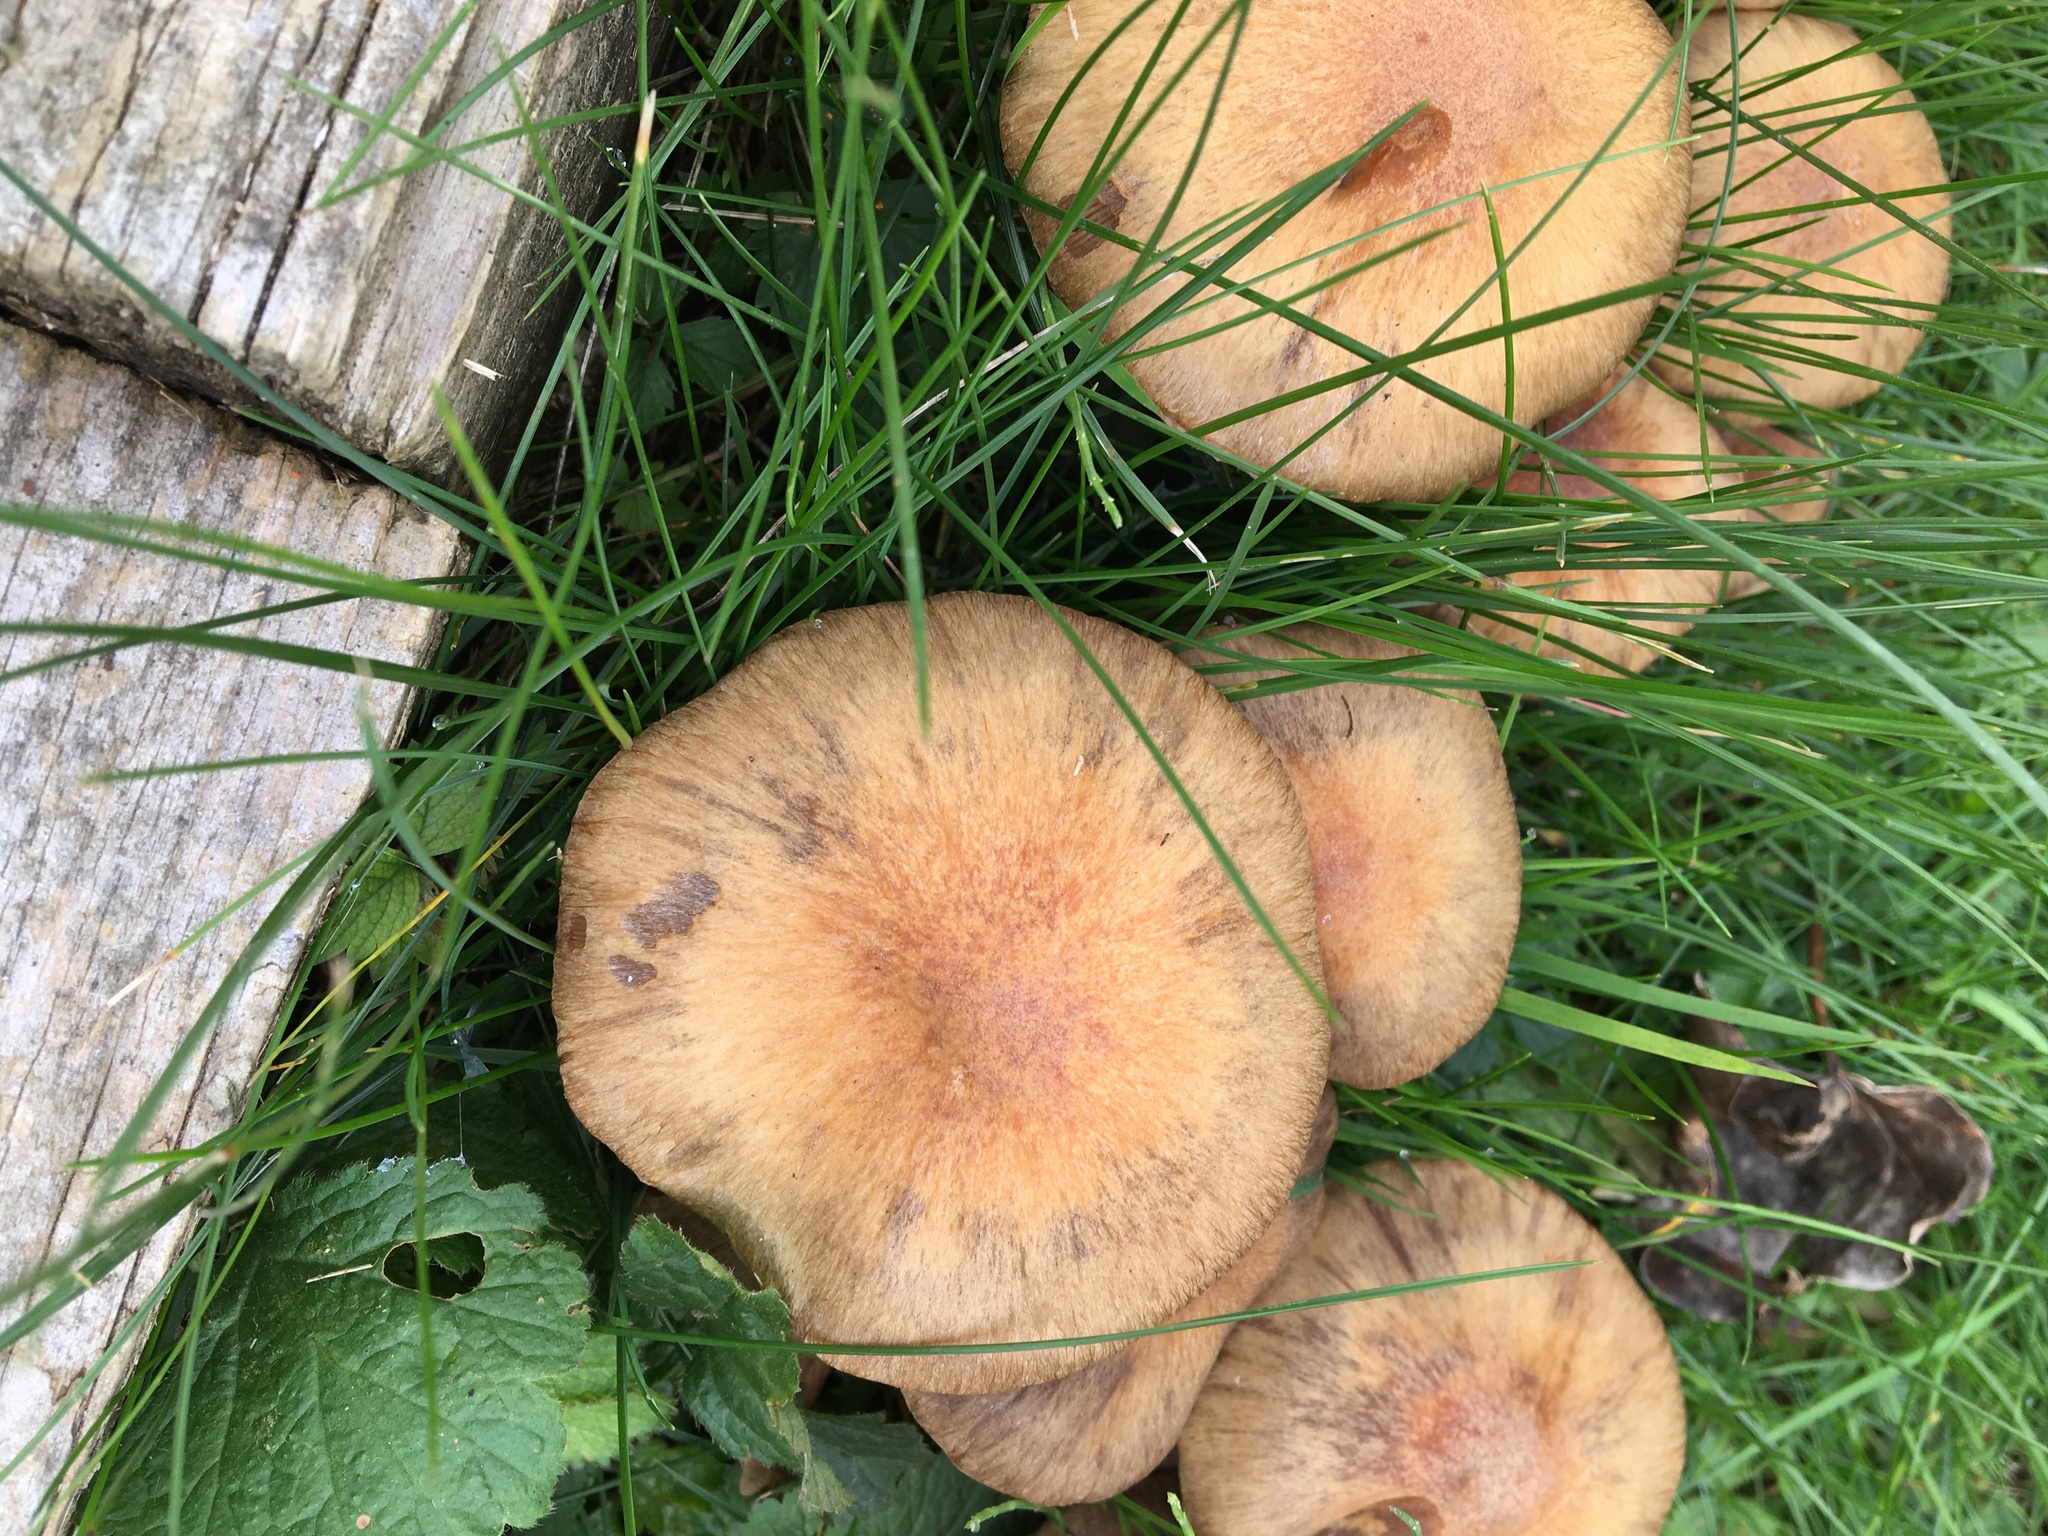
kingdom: Fungi
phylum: Basidiomycota
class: Agaricomycetes
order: Agaricales
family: Psathyrellaceae
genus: Lacrymaria
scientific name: Lacrymaria lacrymabunda
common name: Weeping widow
